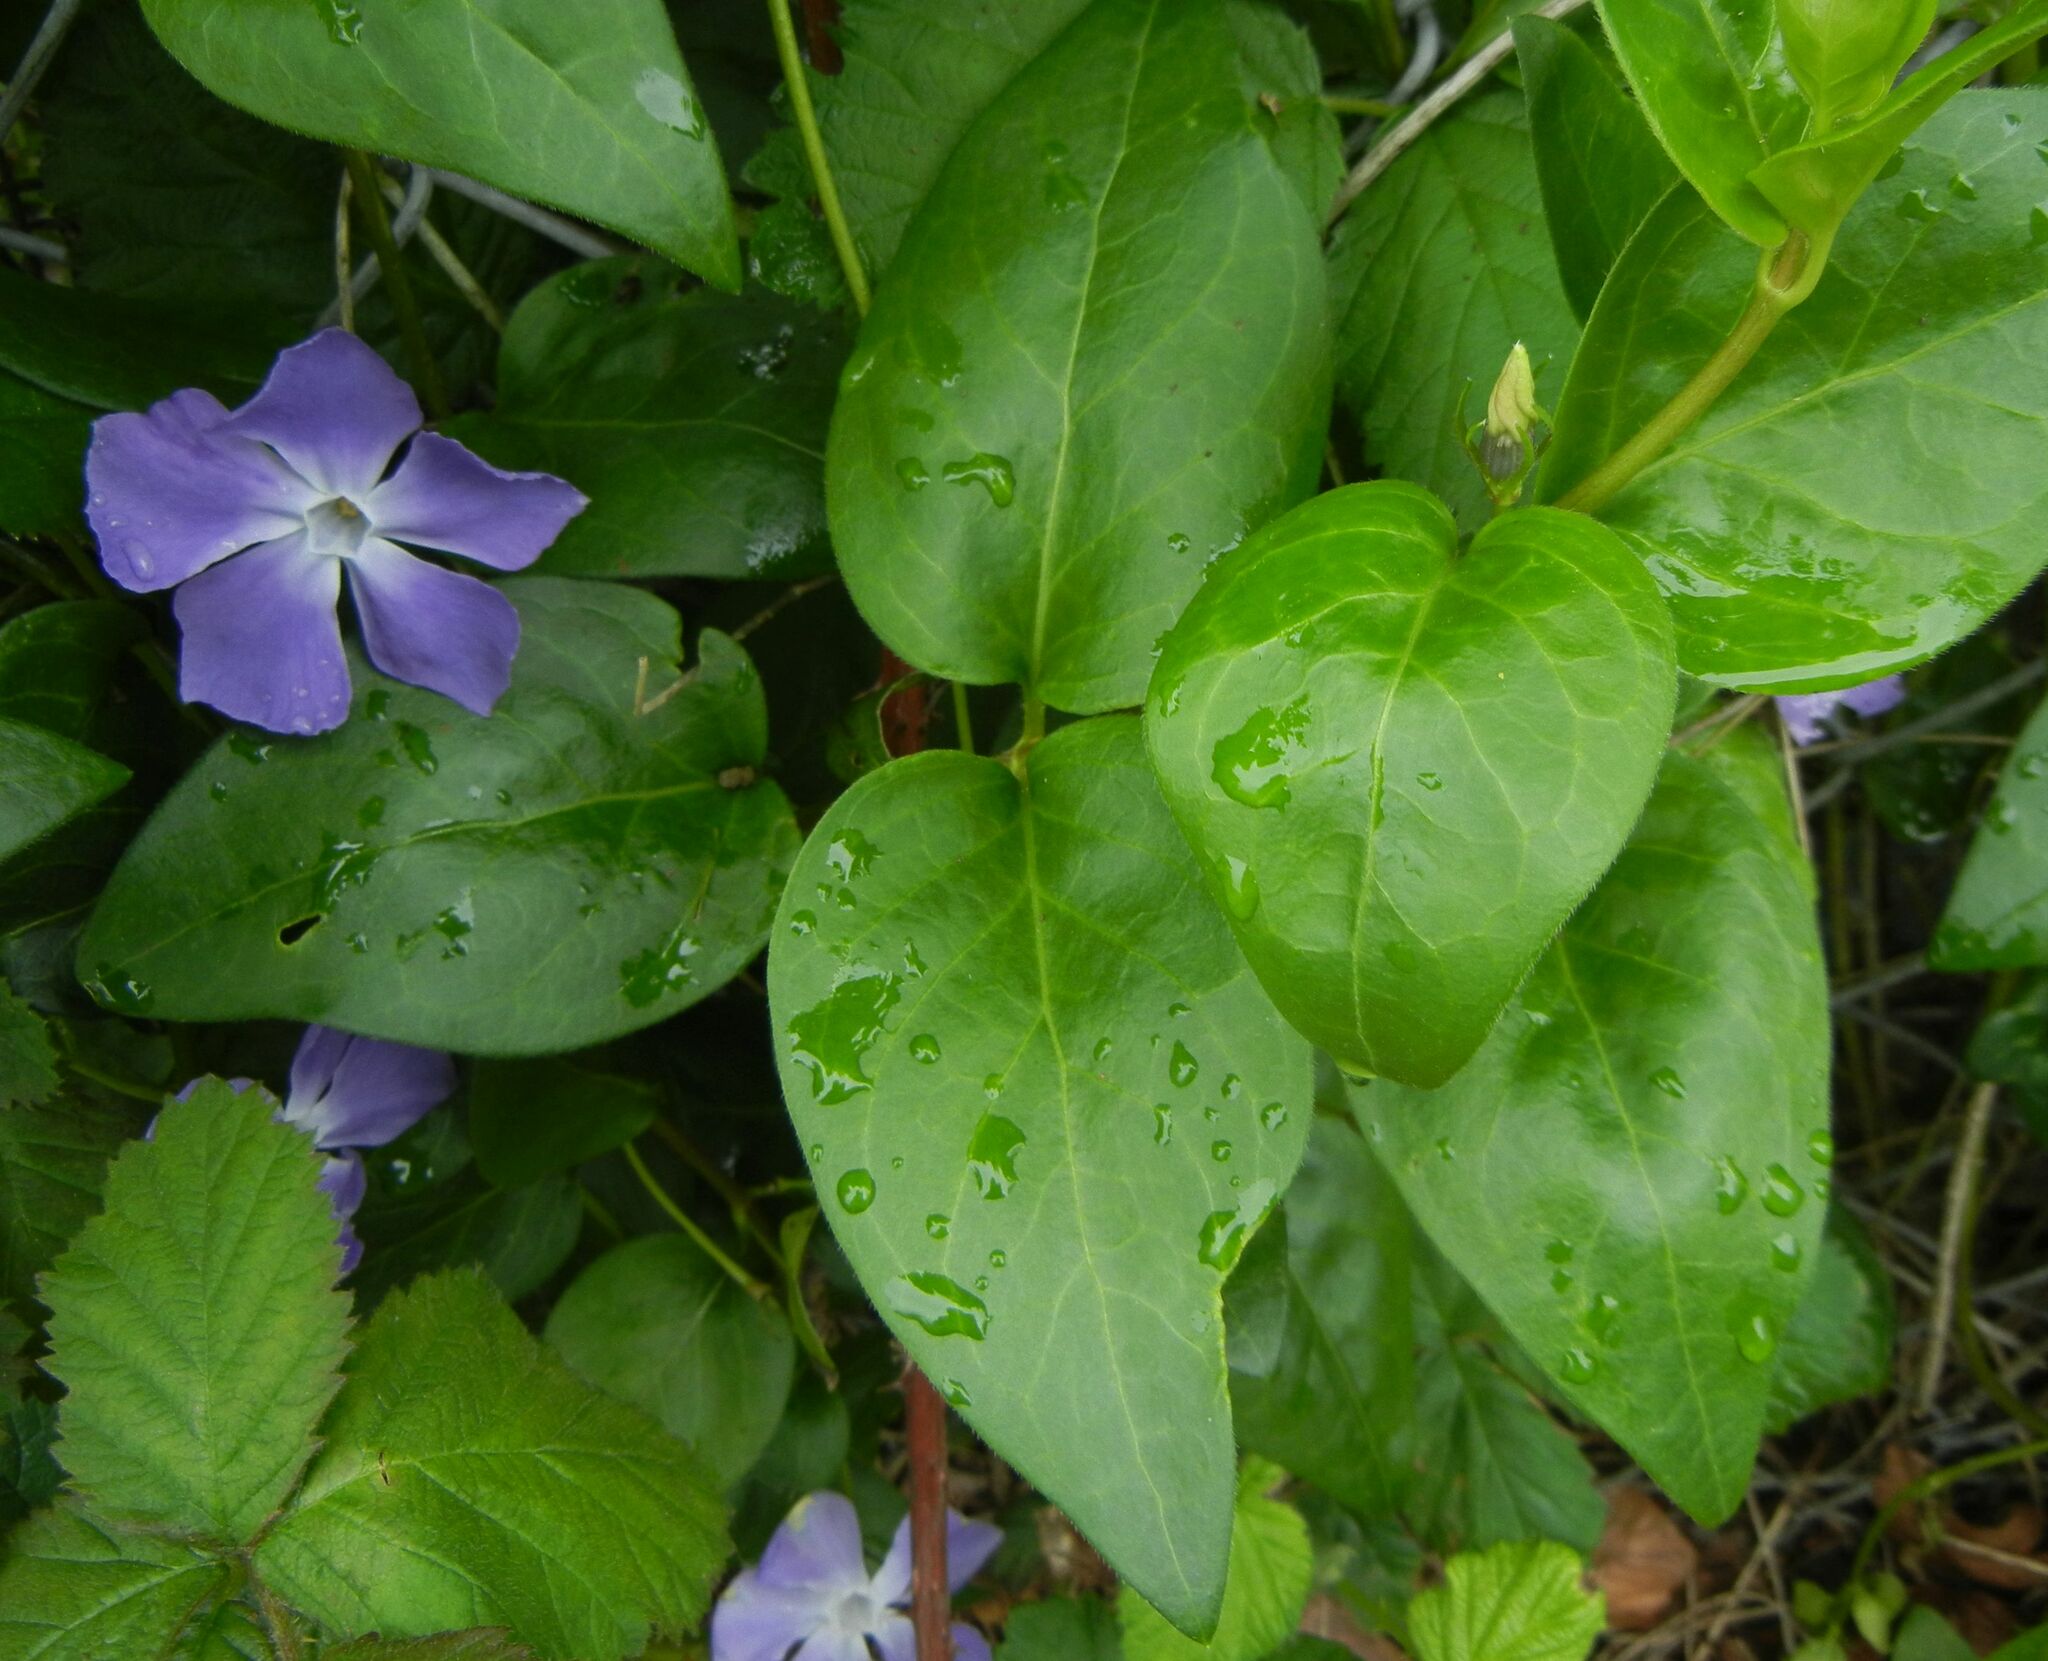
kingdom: Plantae
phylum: Tracheophyta
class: Magnoliopsida
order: Gentianales
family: Apocynaceae
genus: Vinca
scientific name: Vinca major
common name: Greater periwinkle
